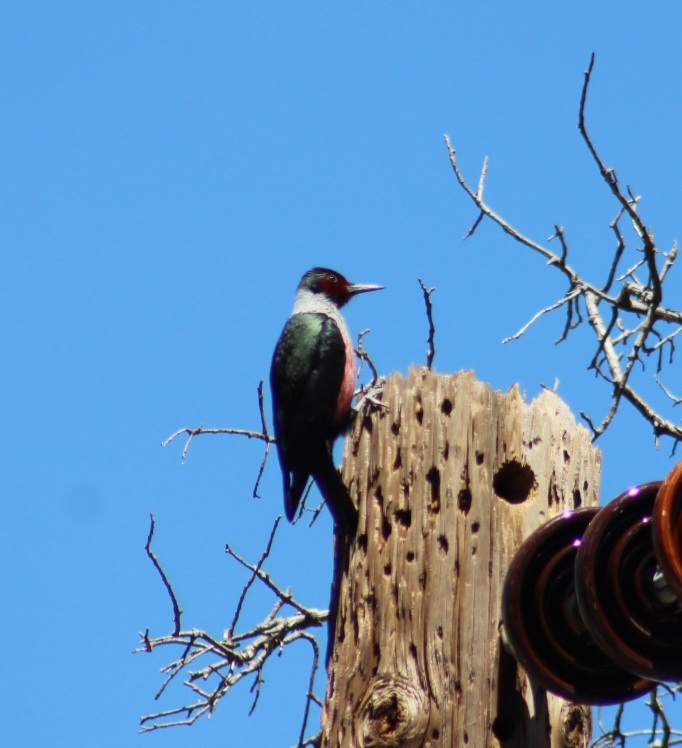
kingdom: Animalia
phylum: Chordata
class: Aves
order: Piciformes
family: Picidae
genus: Melanerpes
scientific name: Melanerpes lewis
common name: Lewis's woodpecker
